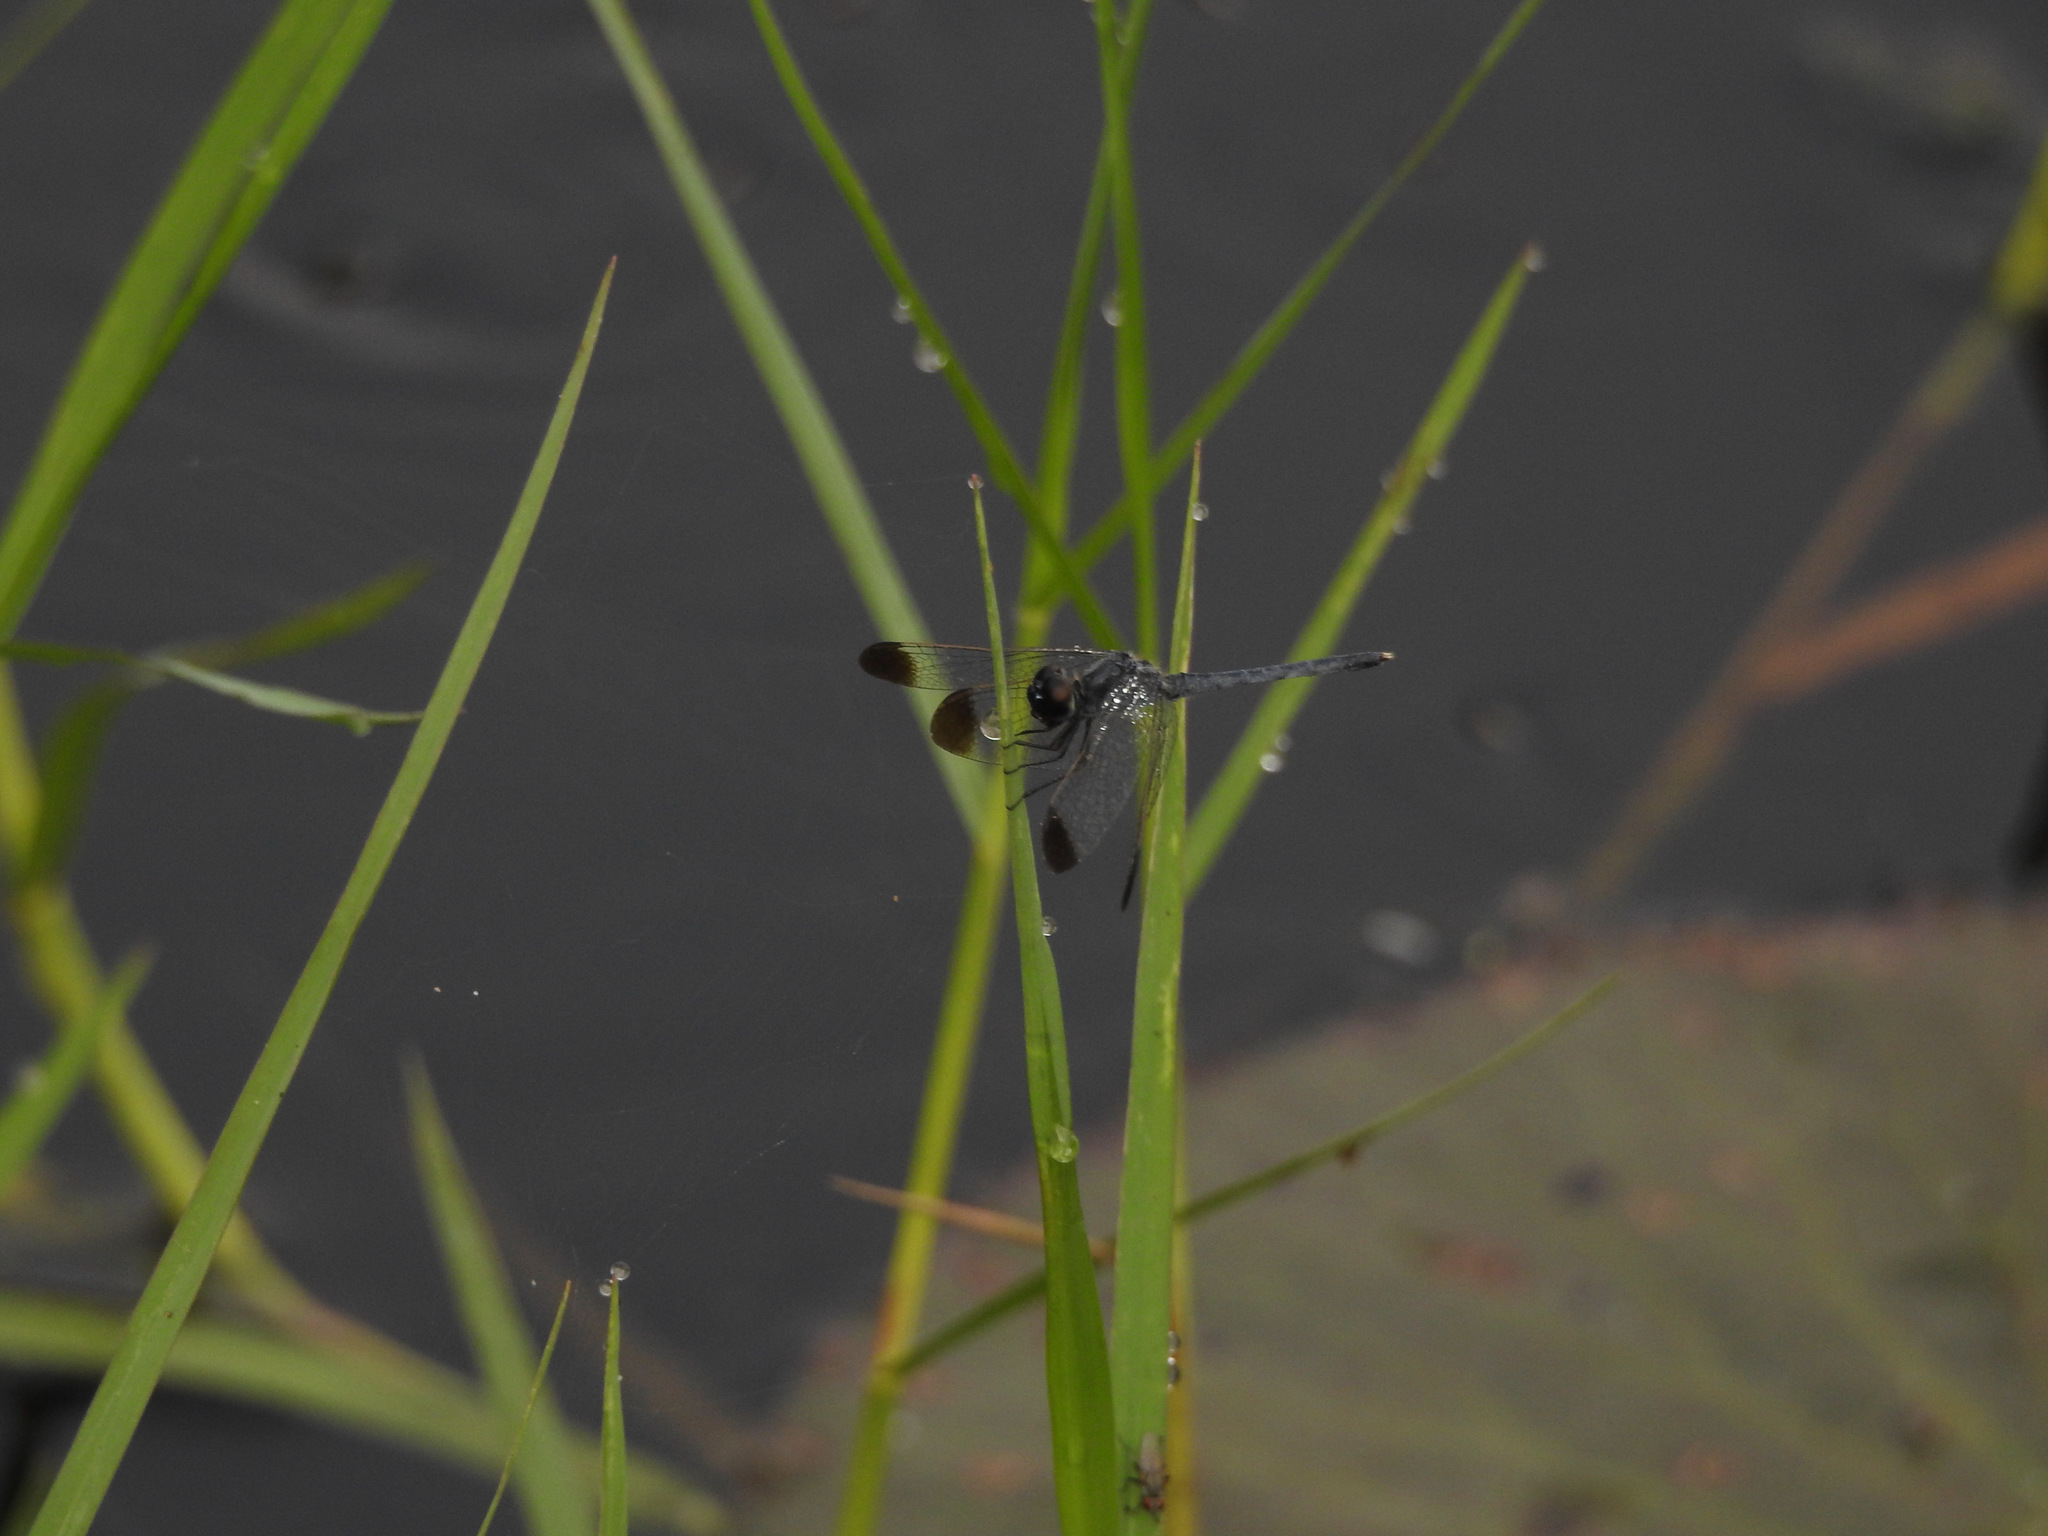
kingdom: Animalia
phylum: Arthropoda
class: Insecta
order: Odonata
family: Libellulidae
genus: Diplacodes
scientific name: Diplacodes nebulosa
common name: Black-tipped percher
